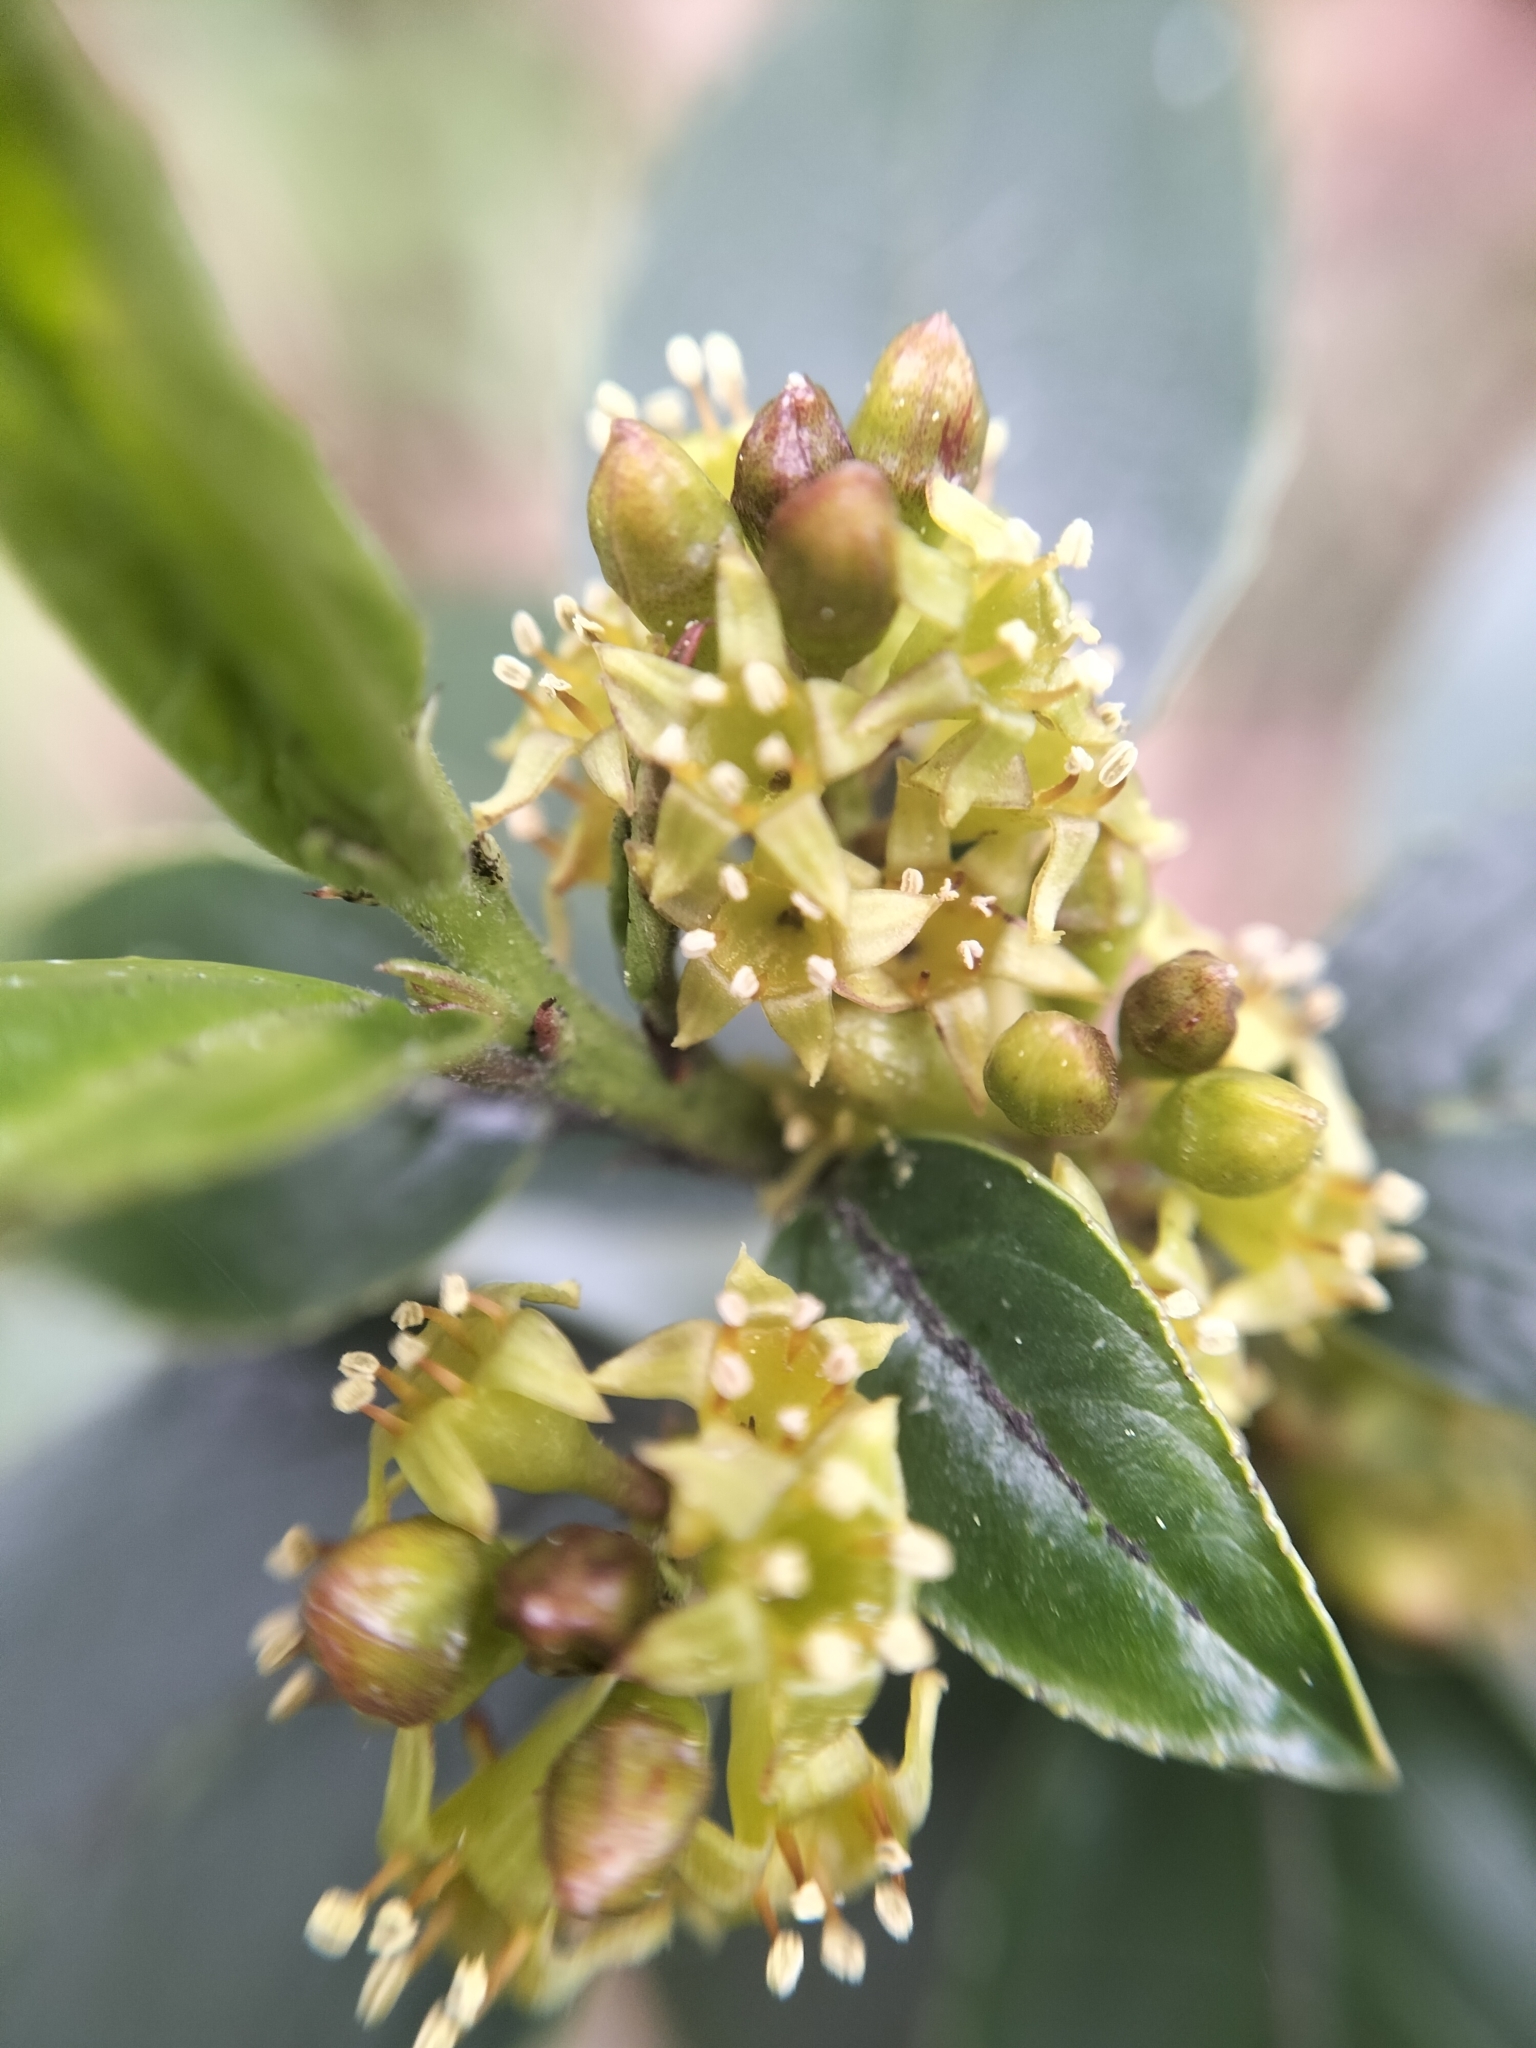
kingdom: Plantae
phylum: Tracheophyta
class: Magnoliopsida
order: Rosales
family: Rhamnaceae
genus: Rhamnus
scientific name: Rhamnus alaternus
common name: Mediterranean buckthorn
